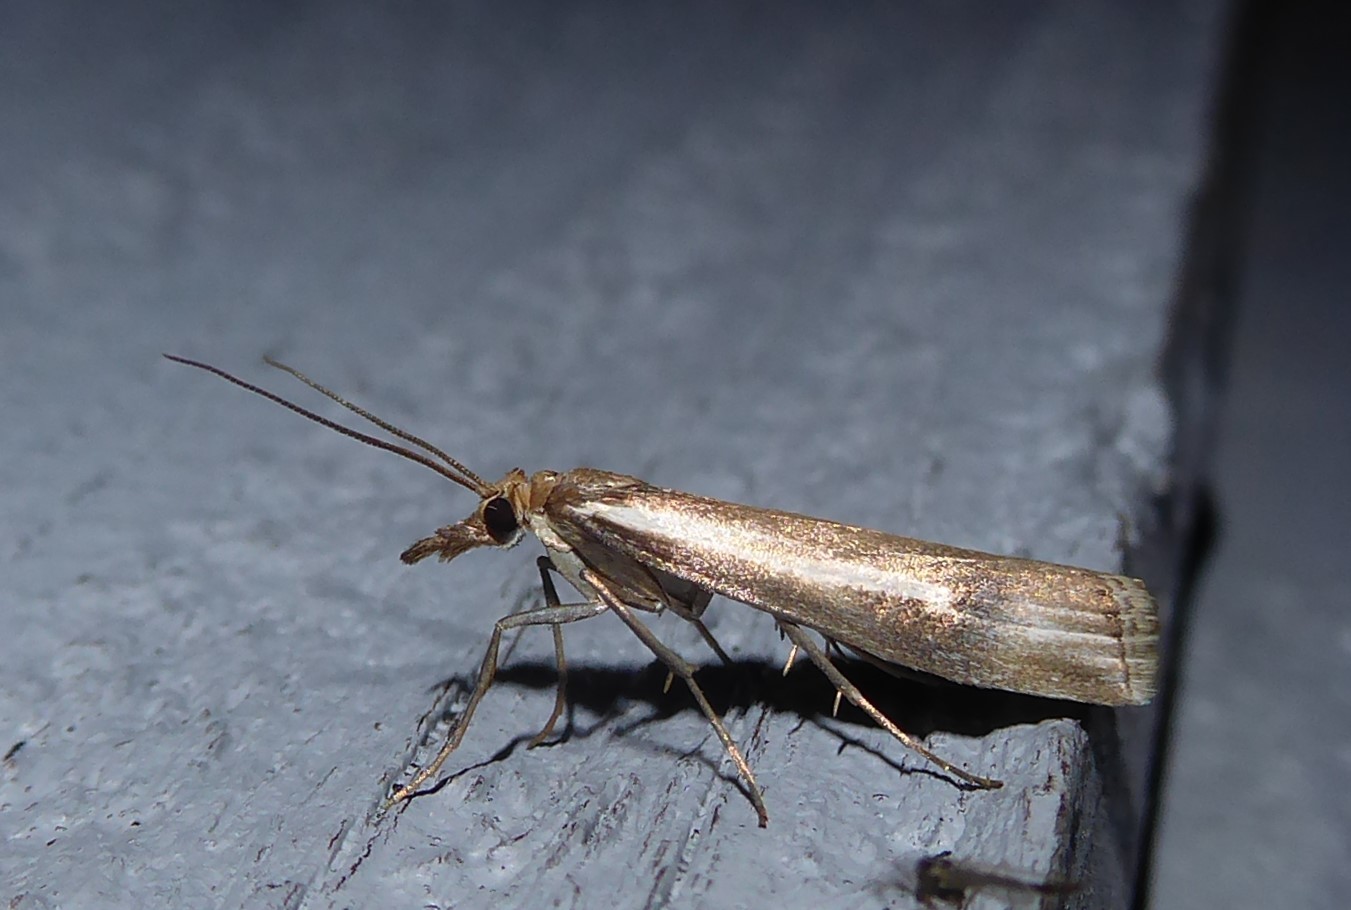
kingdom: Animalia
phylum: Arthropoda
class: Insecta
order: Lepidoptera
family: Crambidae
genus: Orocrambus
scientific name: Orocrambus vulgaris
